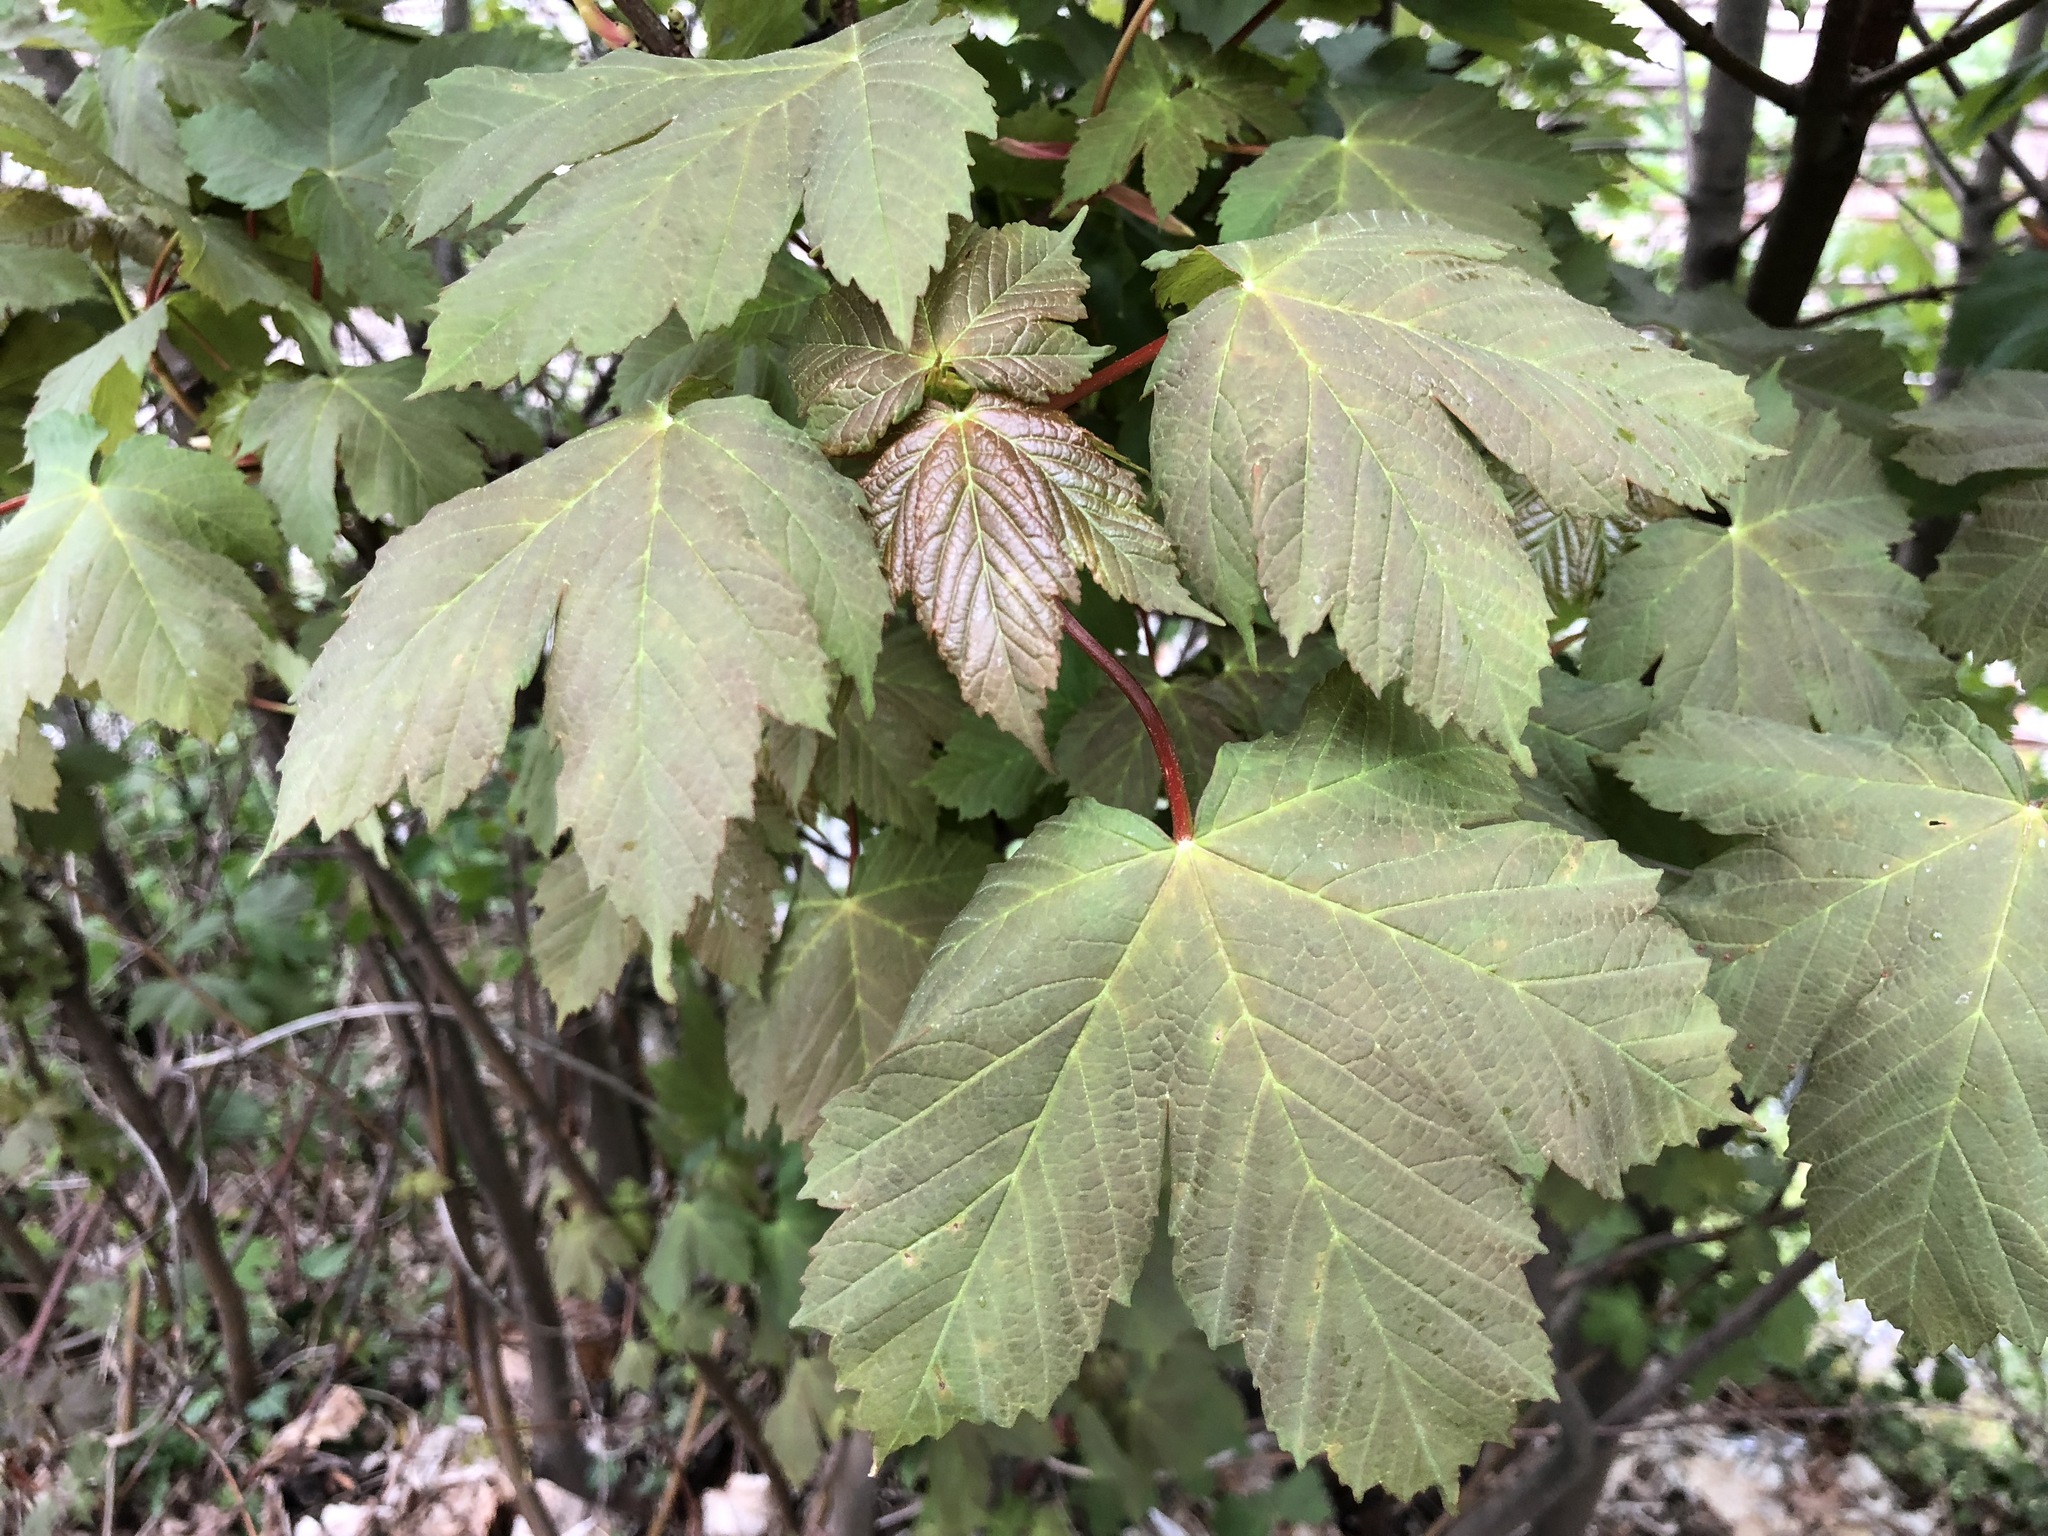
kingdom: Plantae
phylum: Tracheophyta
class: Magnoliopsida
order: Sapindales
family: Sapindaceae
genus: Acer
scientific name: Acer pseudoplatanus
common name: Sycamore
